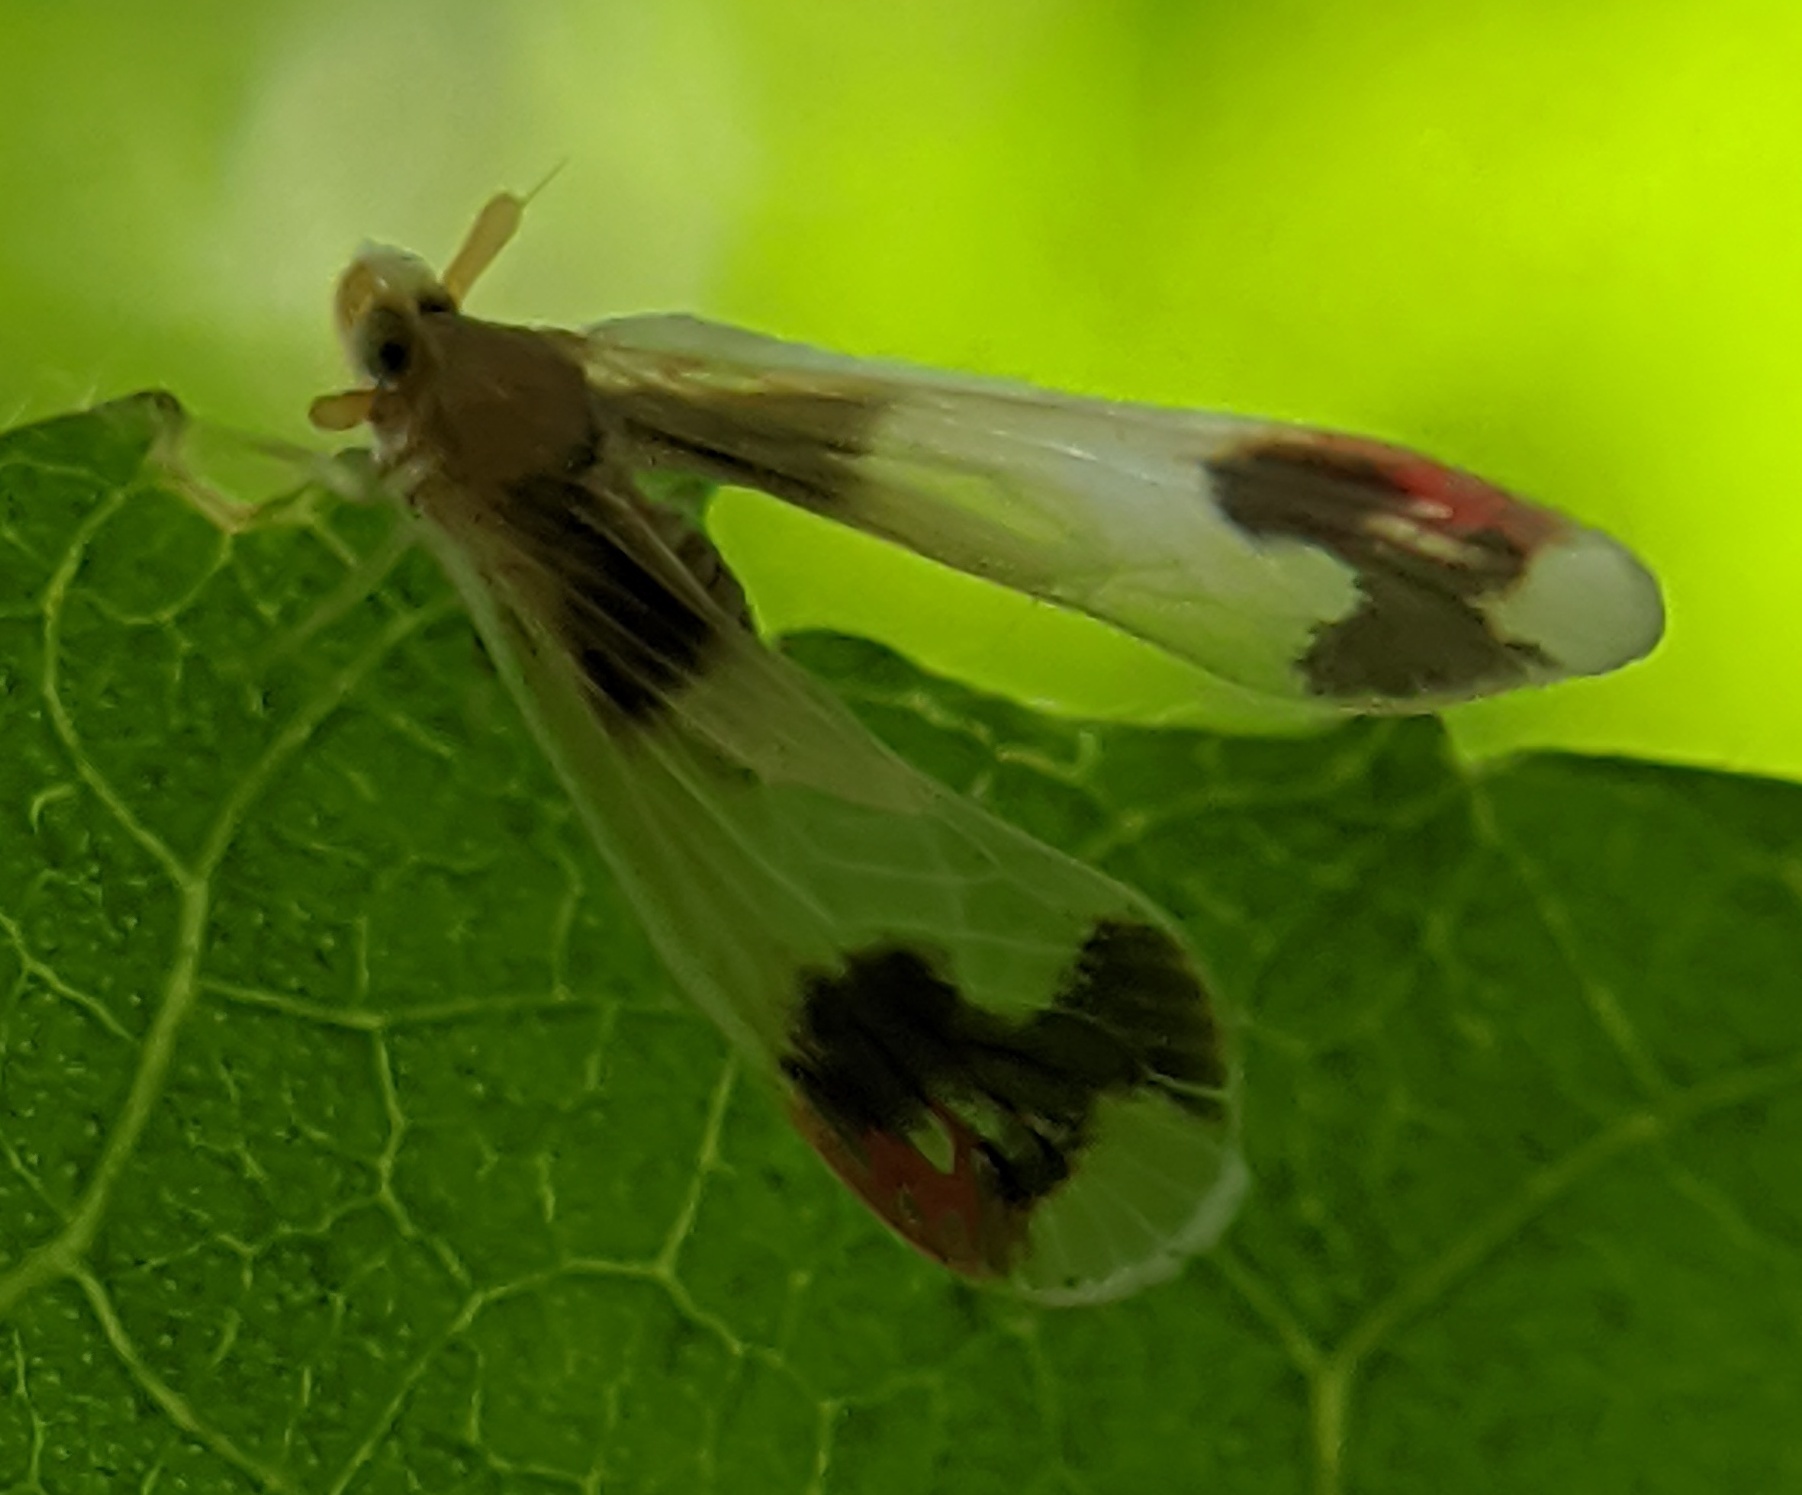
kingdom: Animalia
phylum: Arthropoda
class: Insecta
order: Hemiptera
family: Derbidae
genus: Anotia
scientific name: Anotia uhleri
